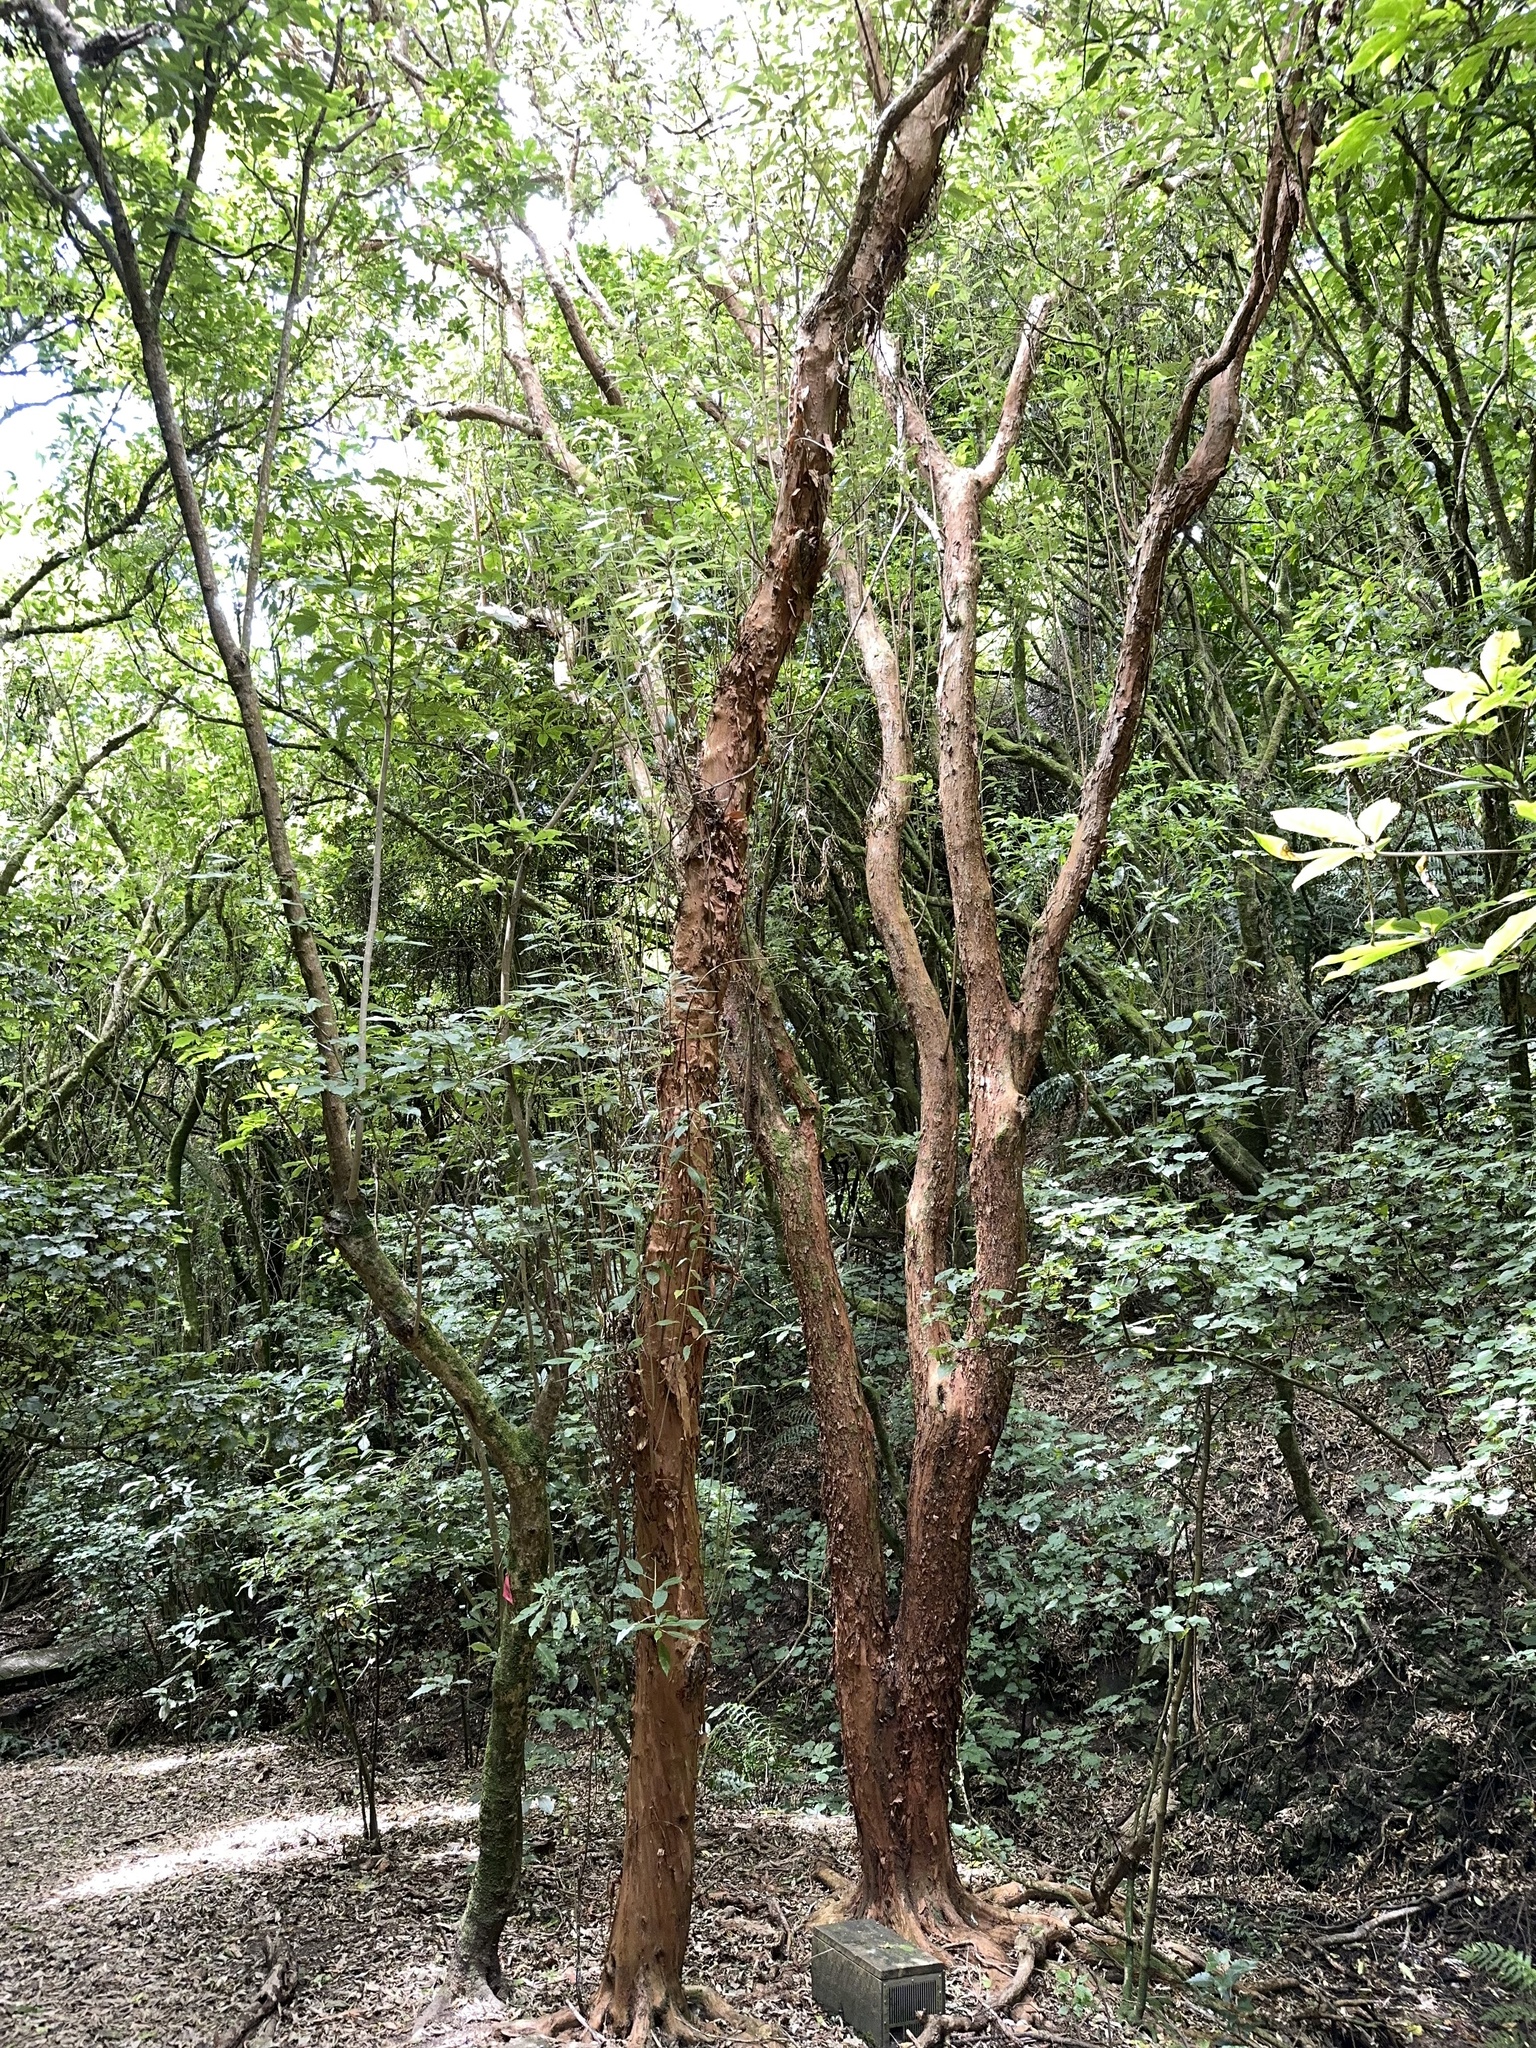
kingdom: Plantae
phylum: Tracheophyta
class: Magnoliopsida
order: Myrtales
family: Onagraceae
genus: Fuchsia
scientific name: Fuchsia excorticata
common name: Tree fuchsia
